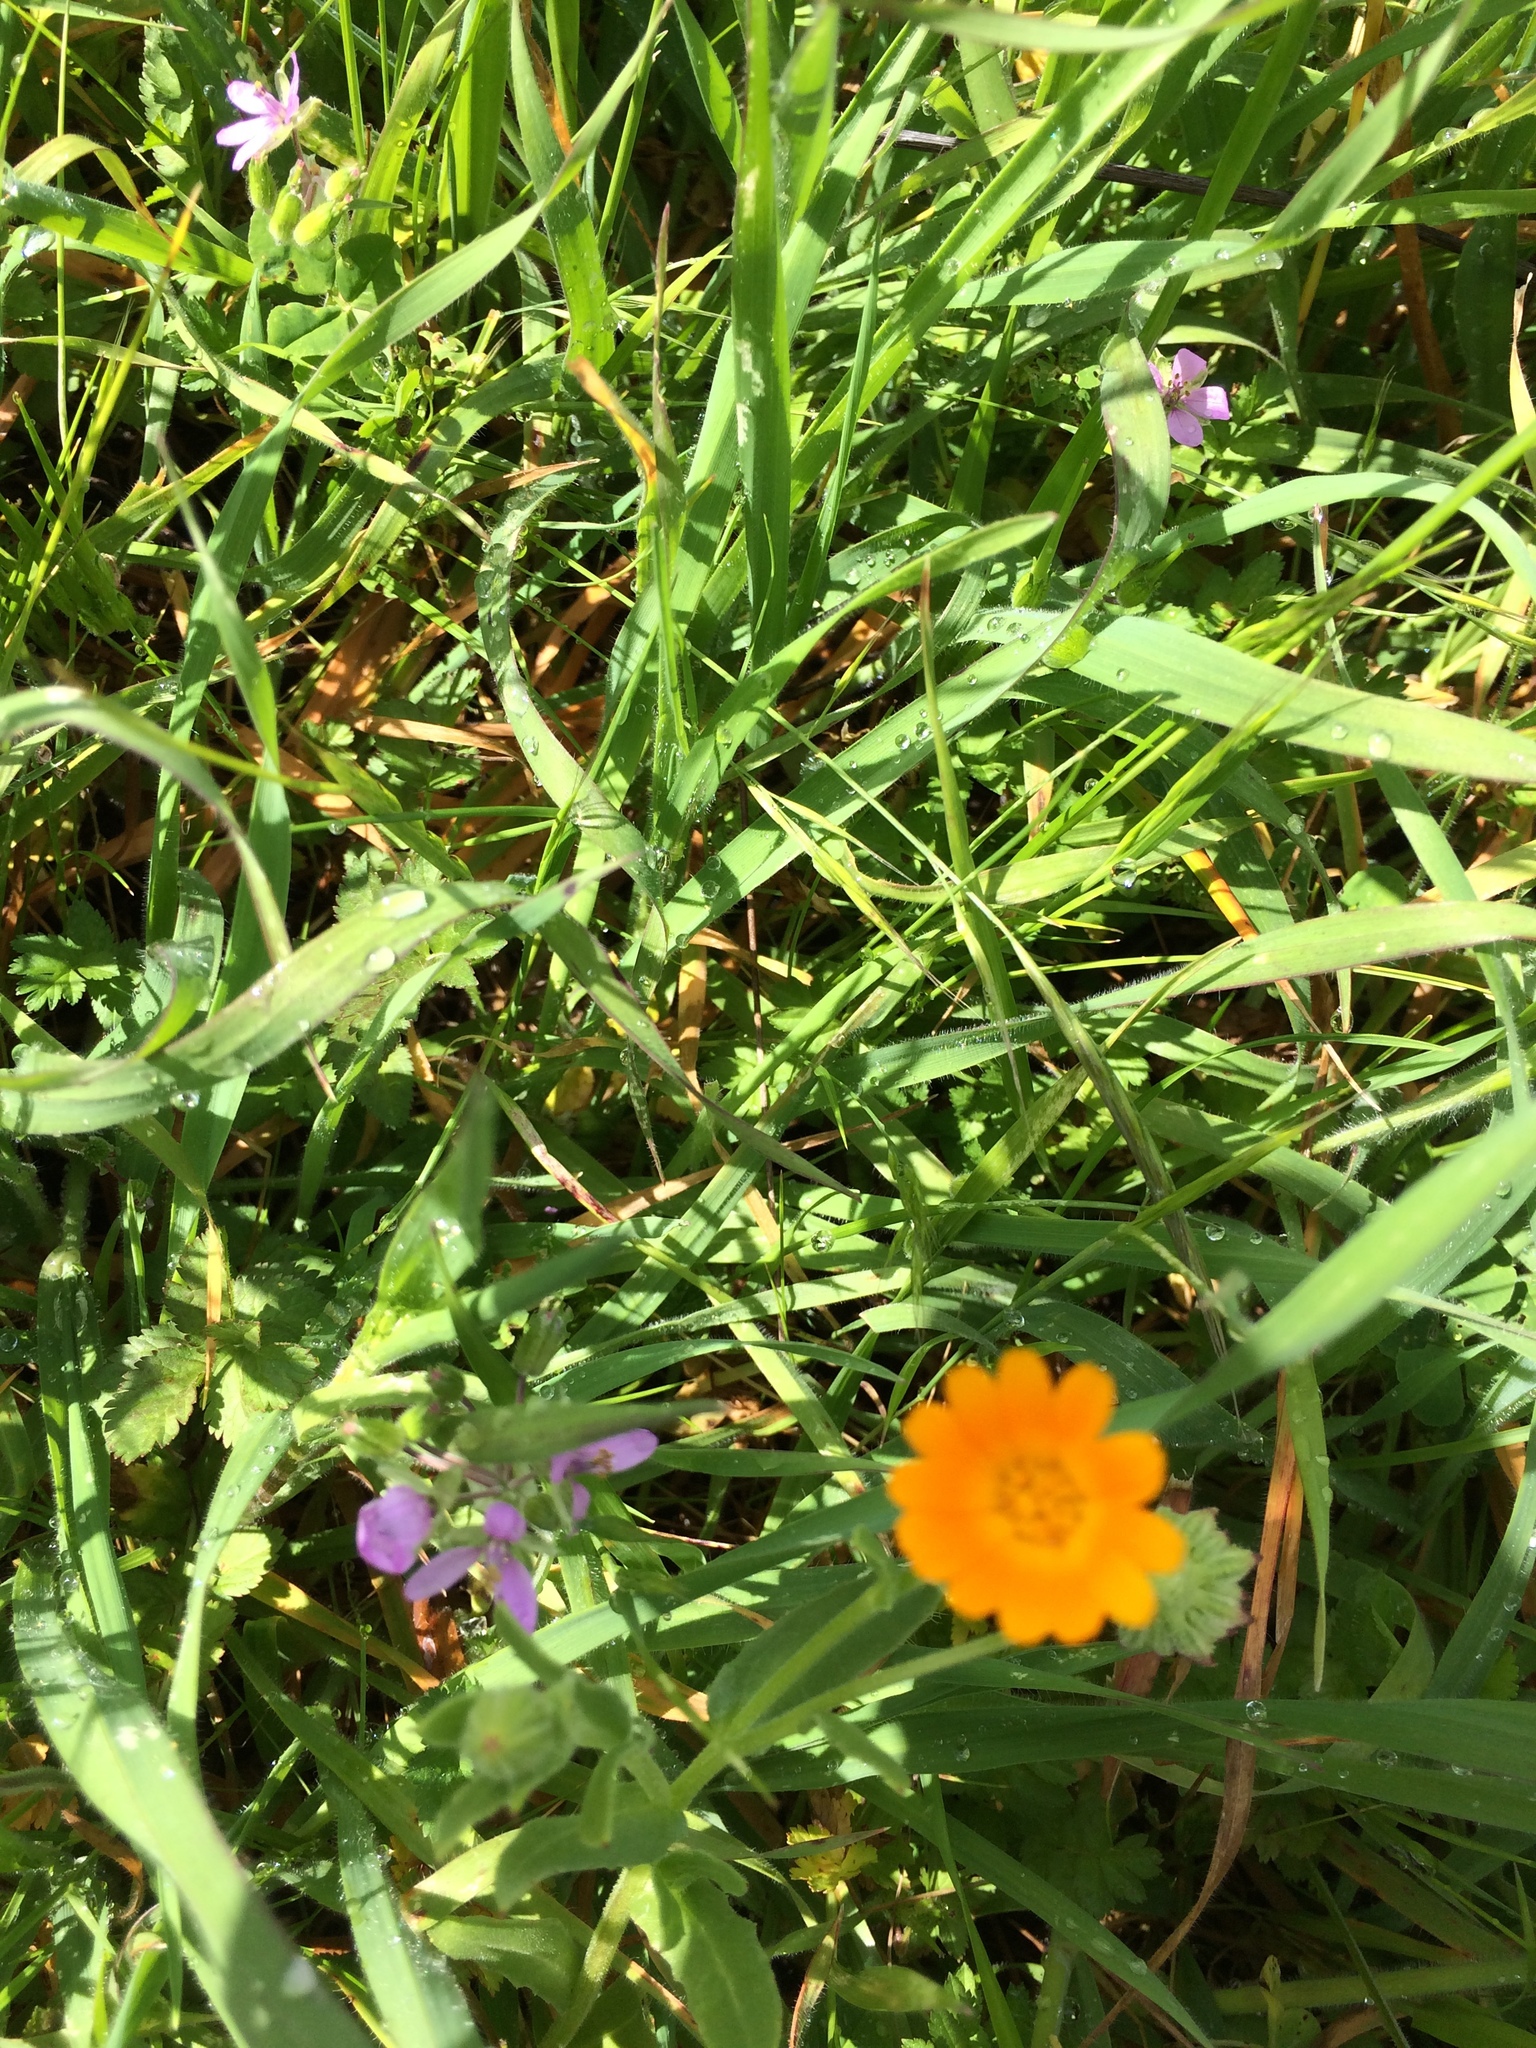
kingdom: Plantae
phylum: Tracheophyta
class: Magnoliopsida
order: Asterales
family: Asteraceae
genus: Calendula
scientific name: Calendula arvensis
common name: Field marigold
